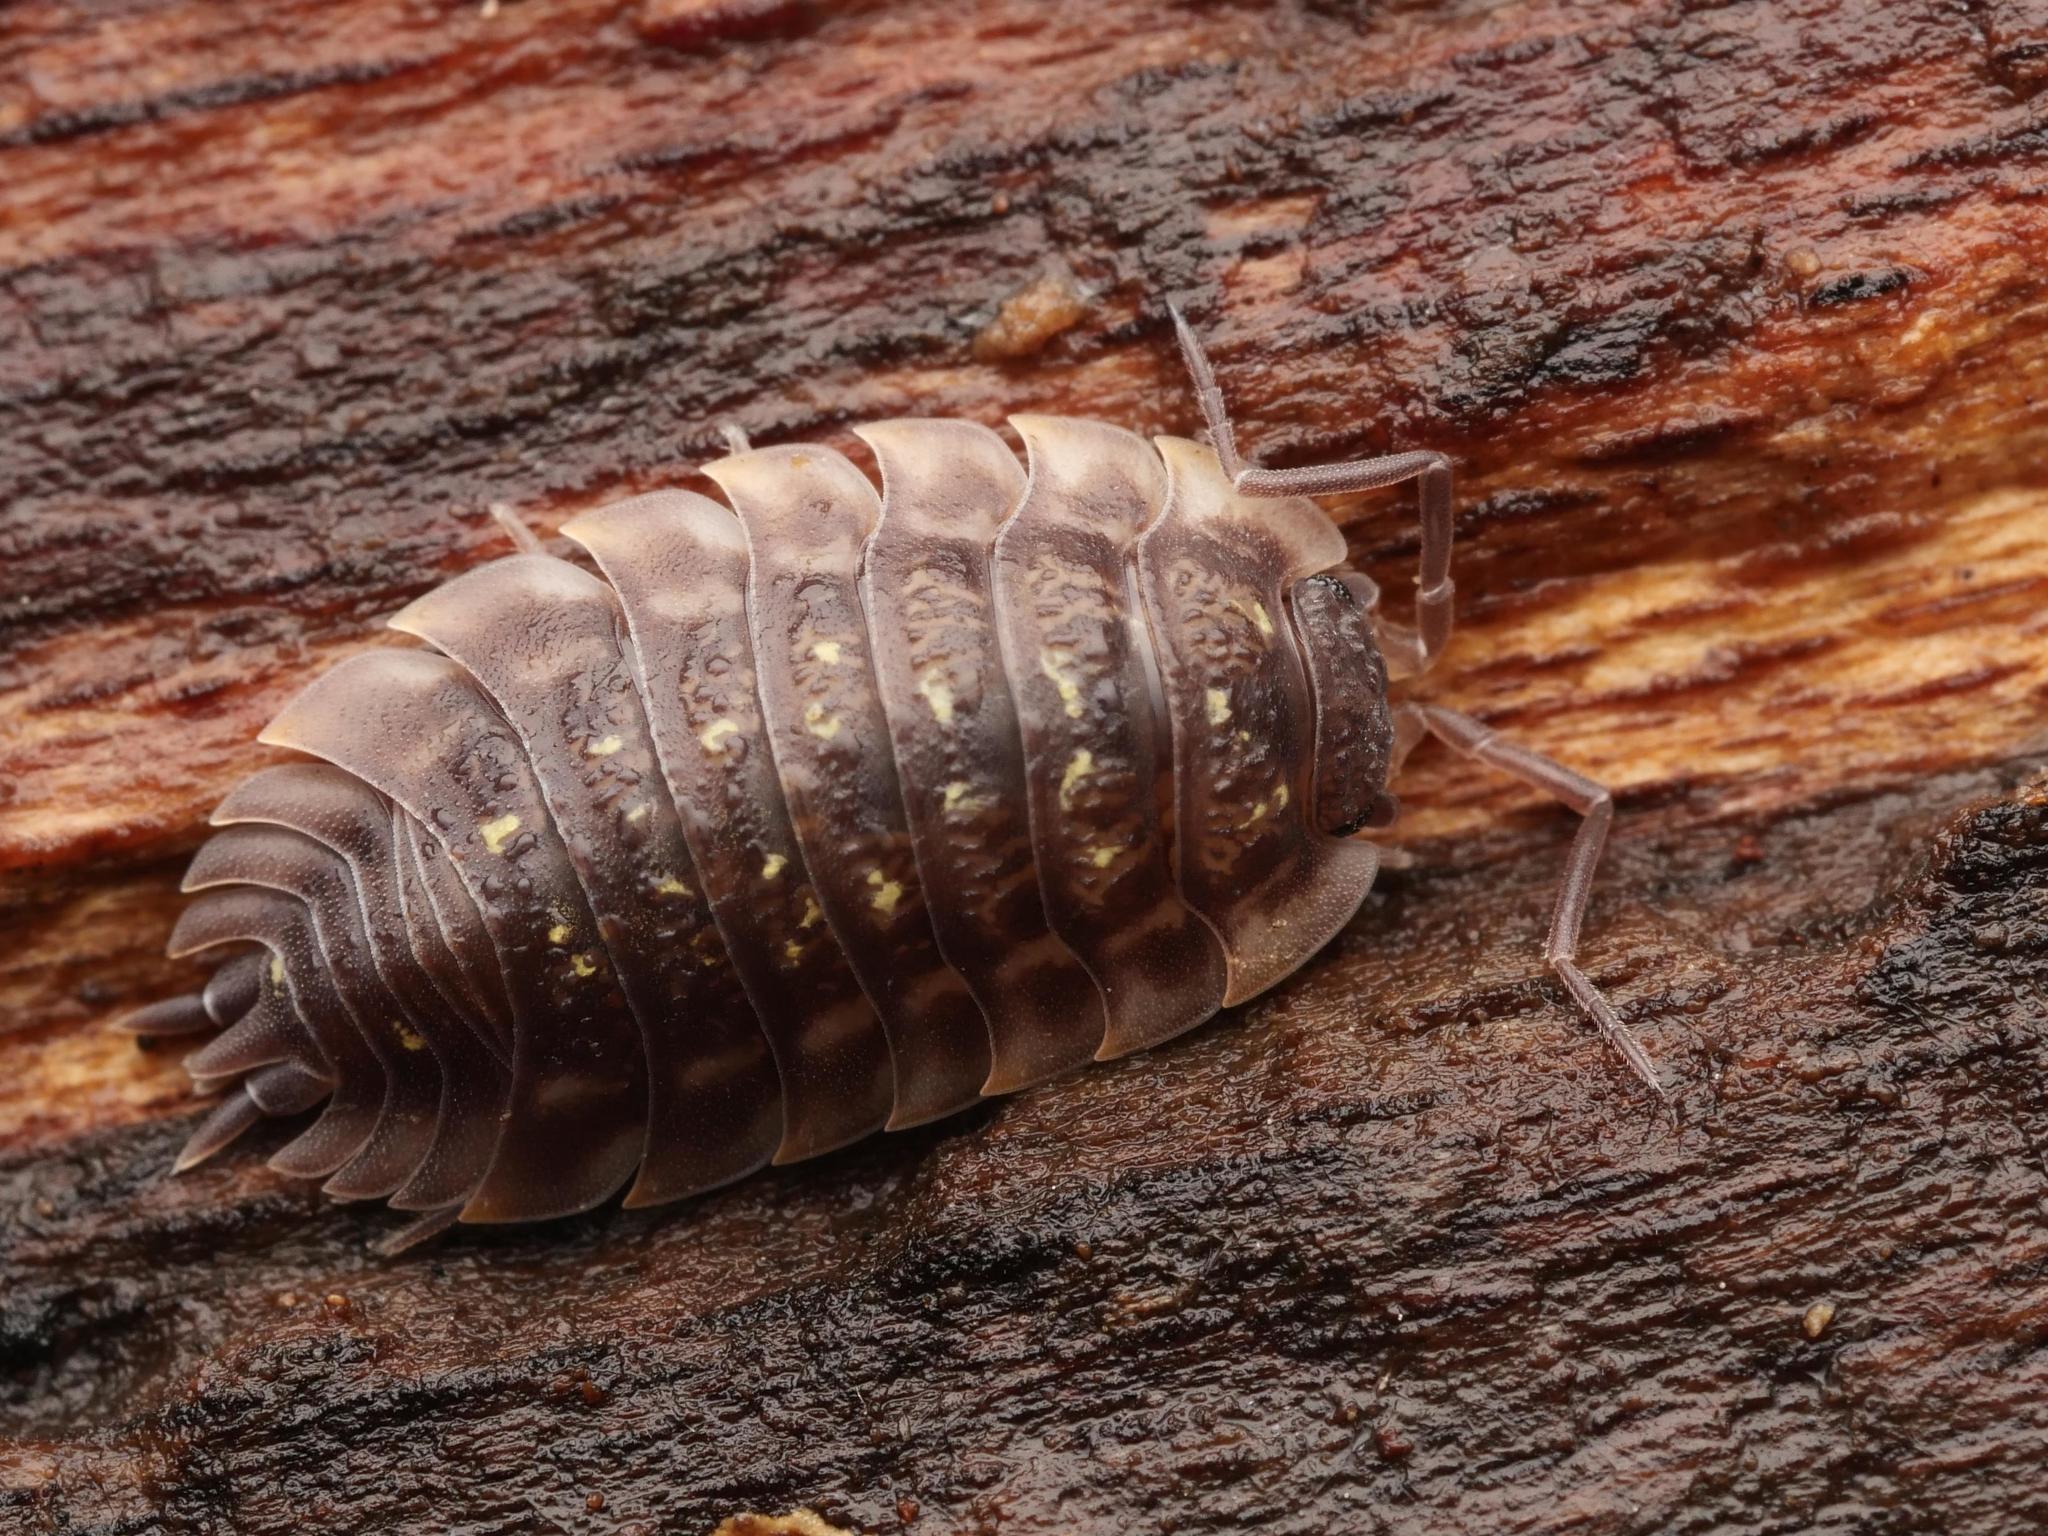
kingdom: Animalia
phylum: Arthropoda
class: Malacostraca
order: Isopoda
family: Oniscidae
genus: Oniscus
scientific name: Oniscus asellus
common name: Common shiny woodlouse
